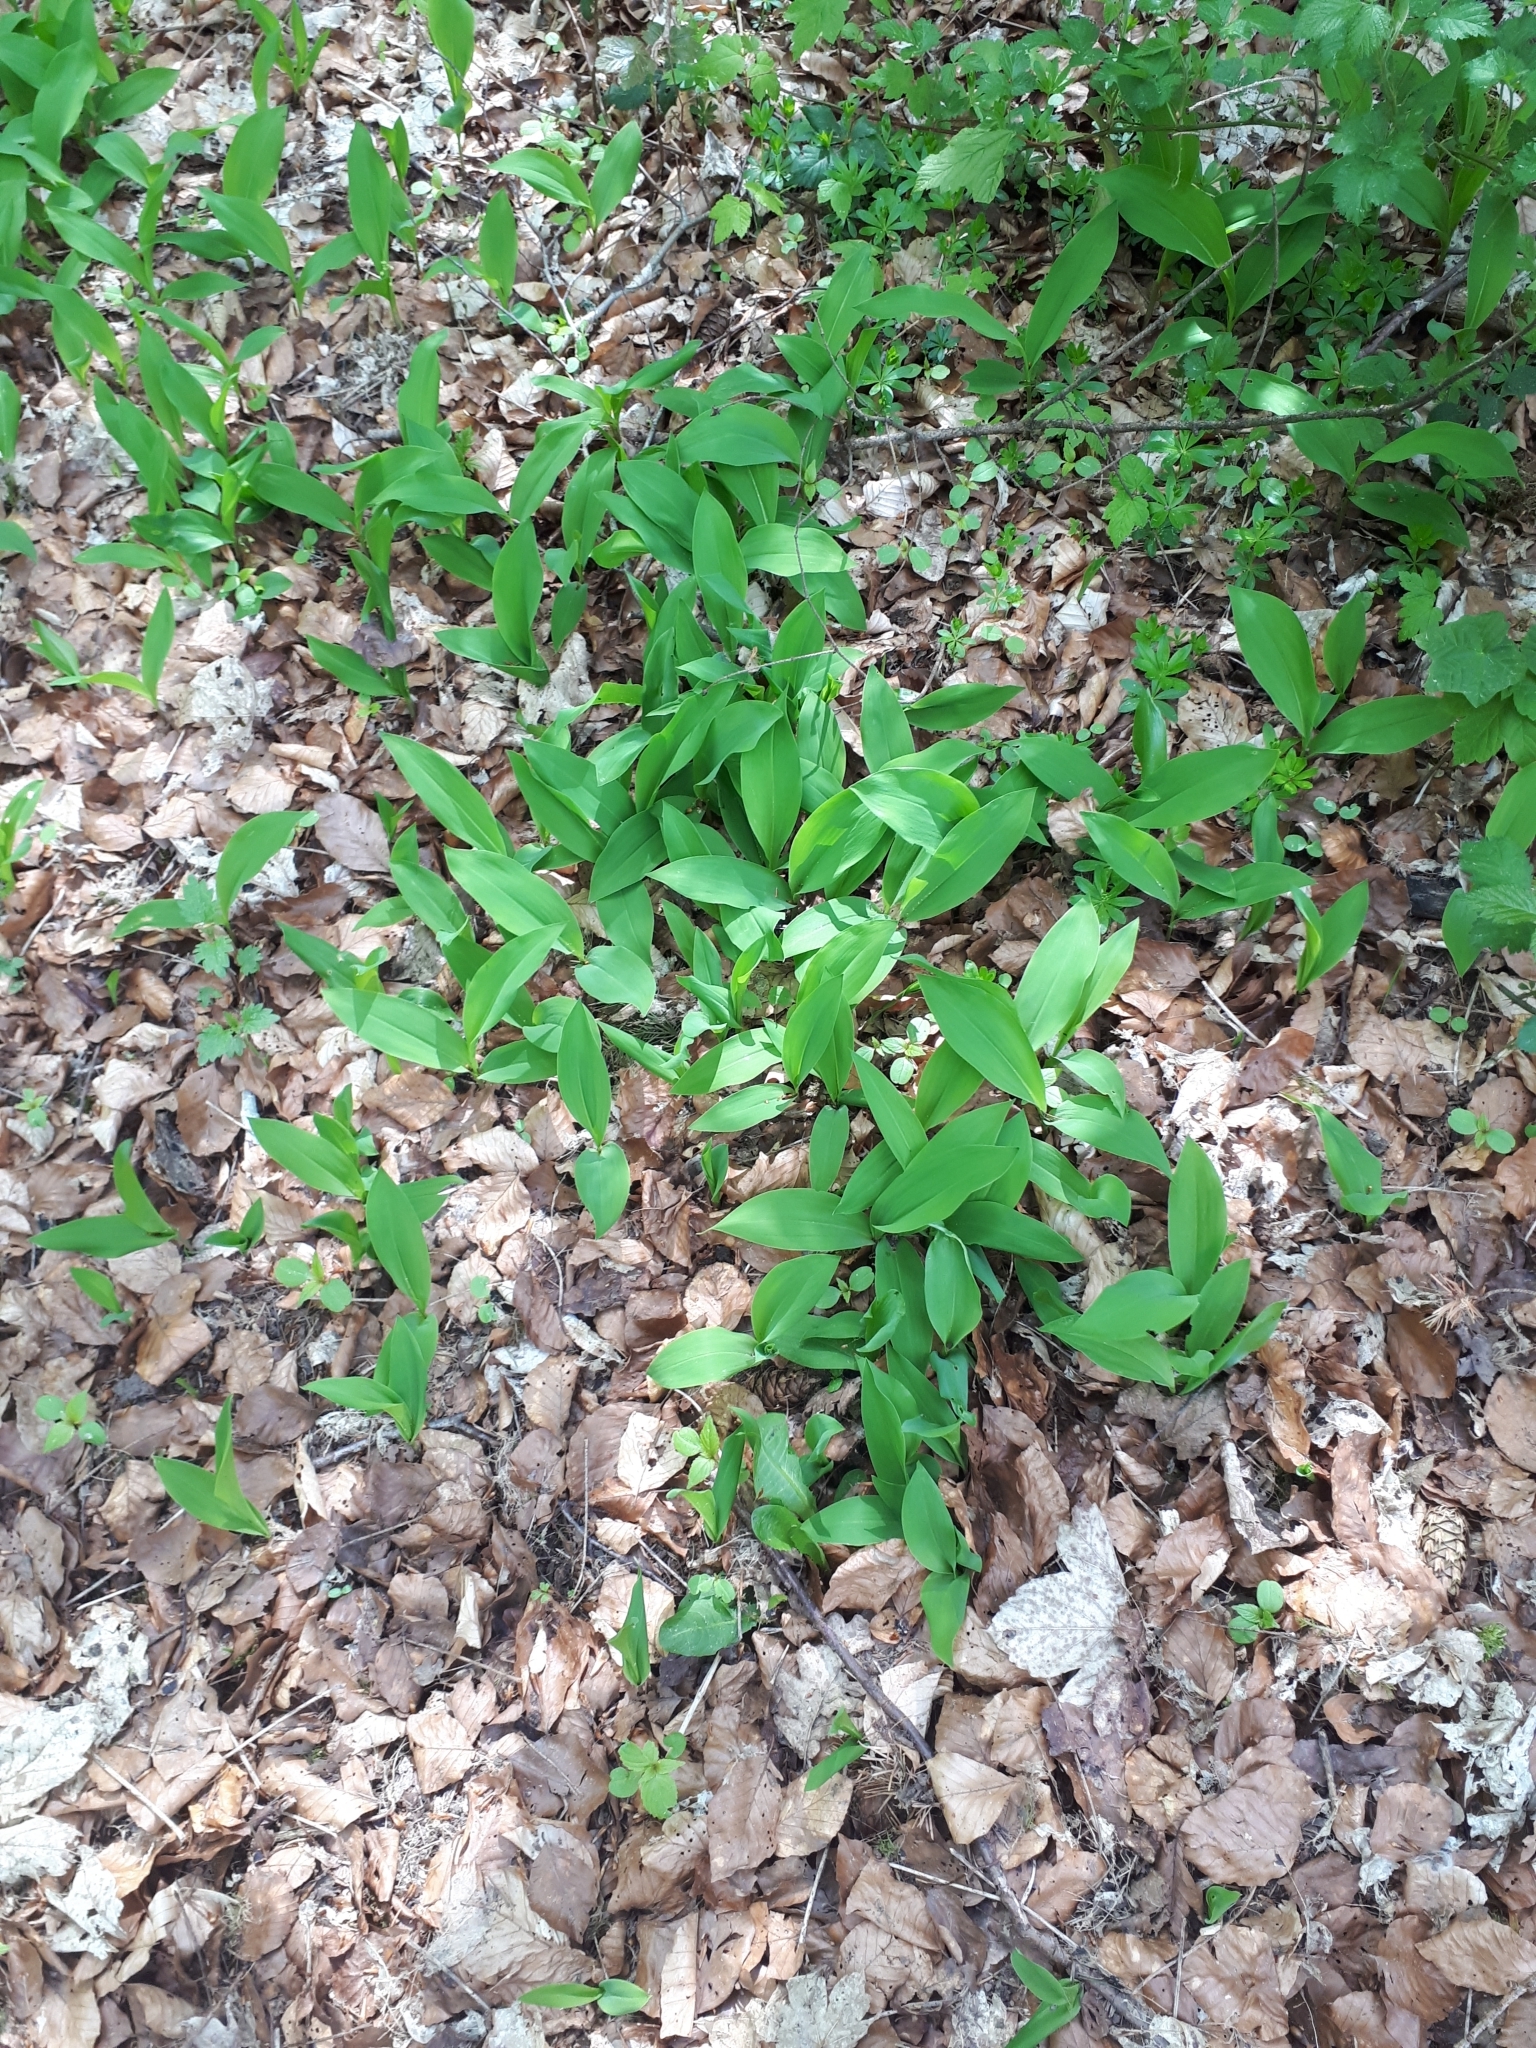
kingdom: Plantae
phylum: Tracheophyta
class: Liliopsida
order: Asparagales
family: Asparagaceae
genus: Convallaria
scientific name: Convallaria majalis
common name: Lily-of-the-valley
